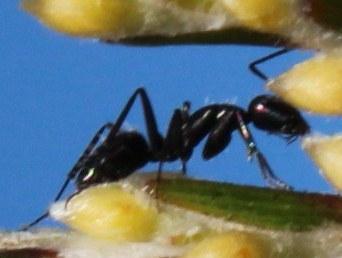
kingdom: Animalia
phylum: Arthropoda
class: Insecta
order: Hymenoptera
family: Formicidae
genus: Camponotus
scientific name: Camponotus niveosetosus
